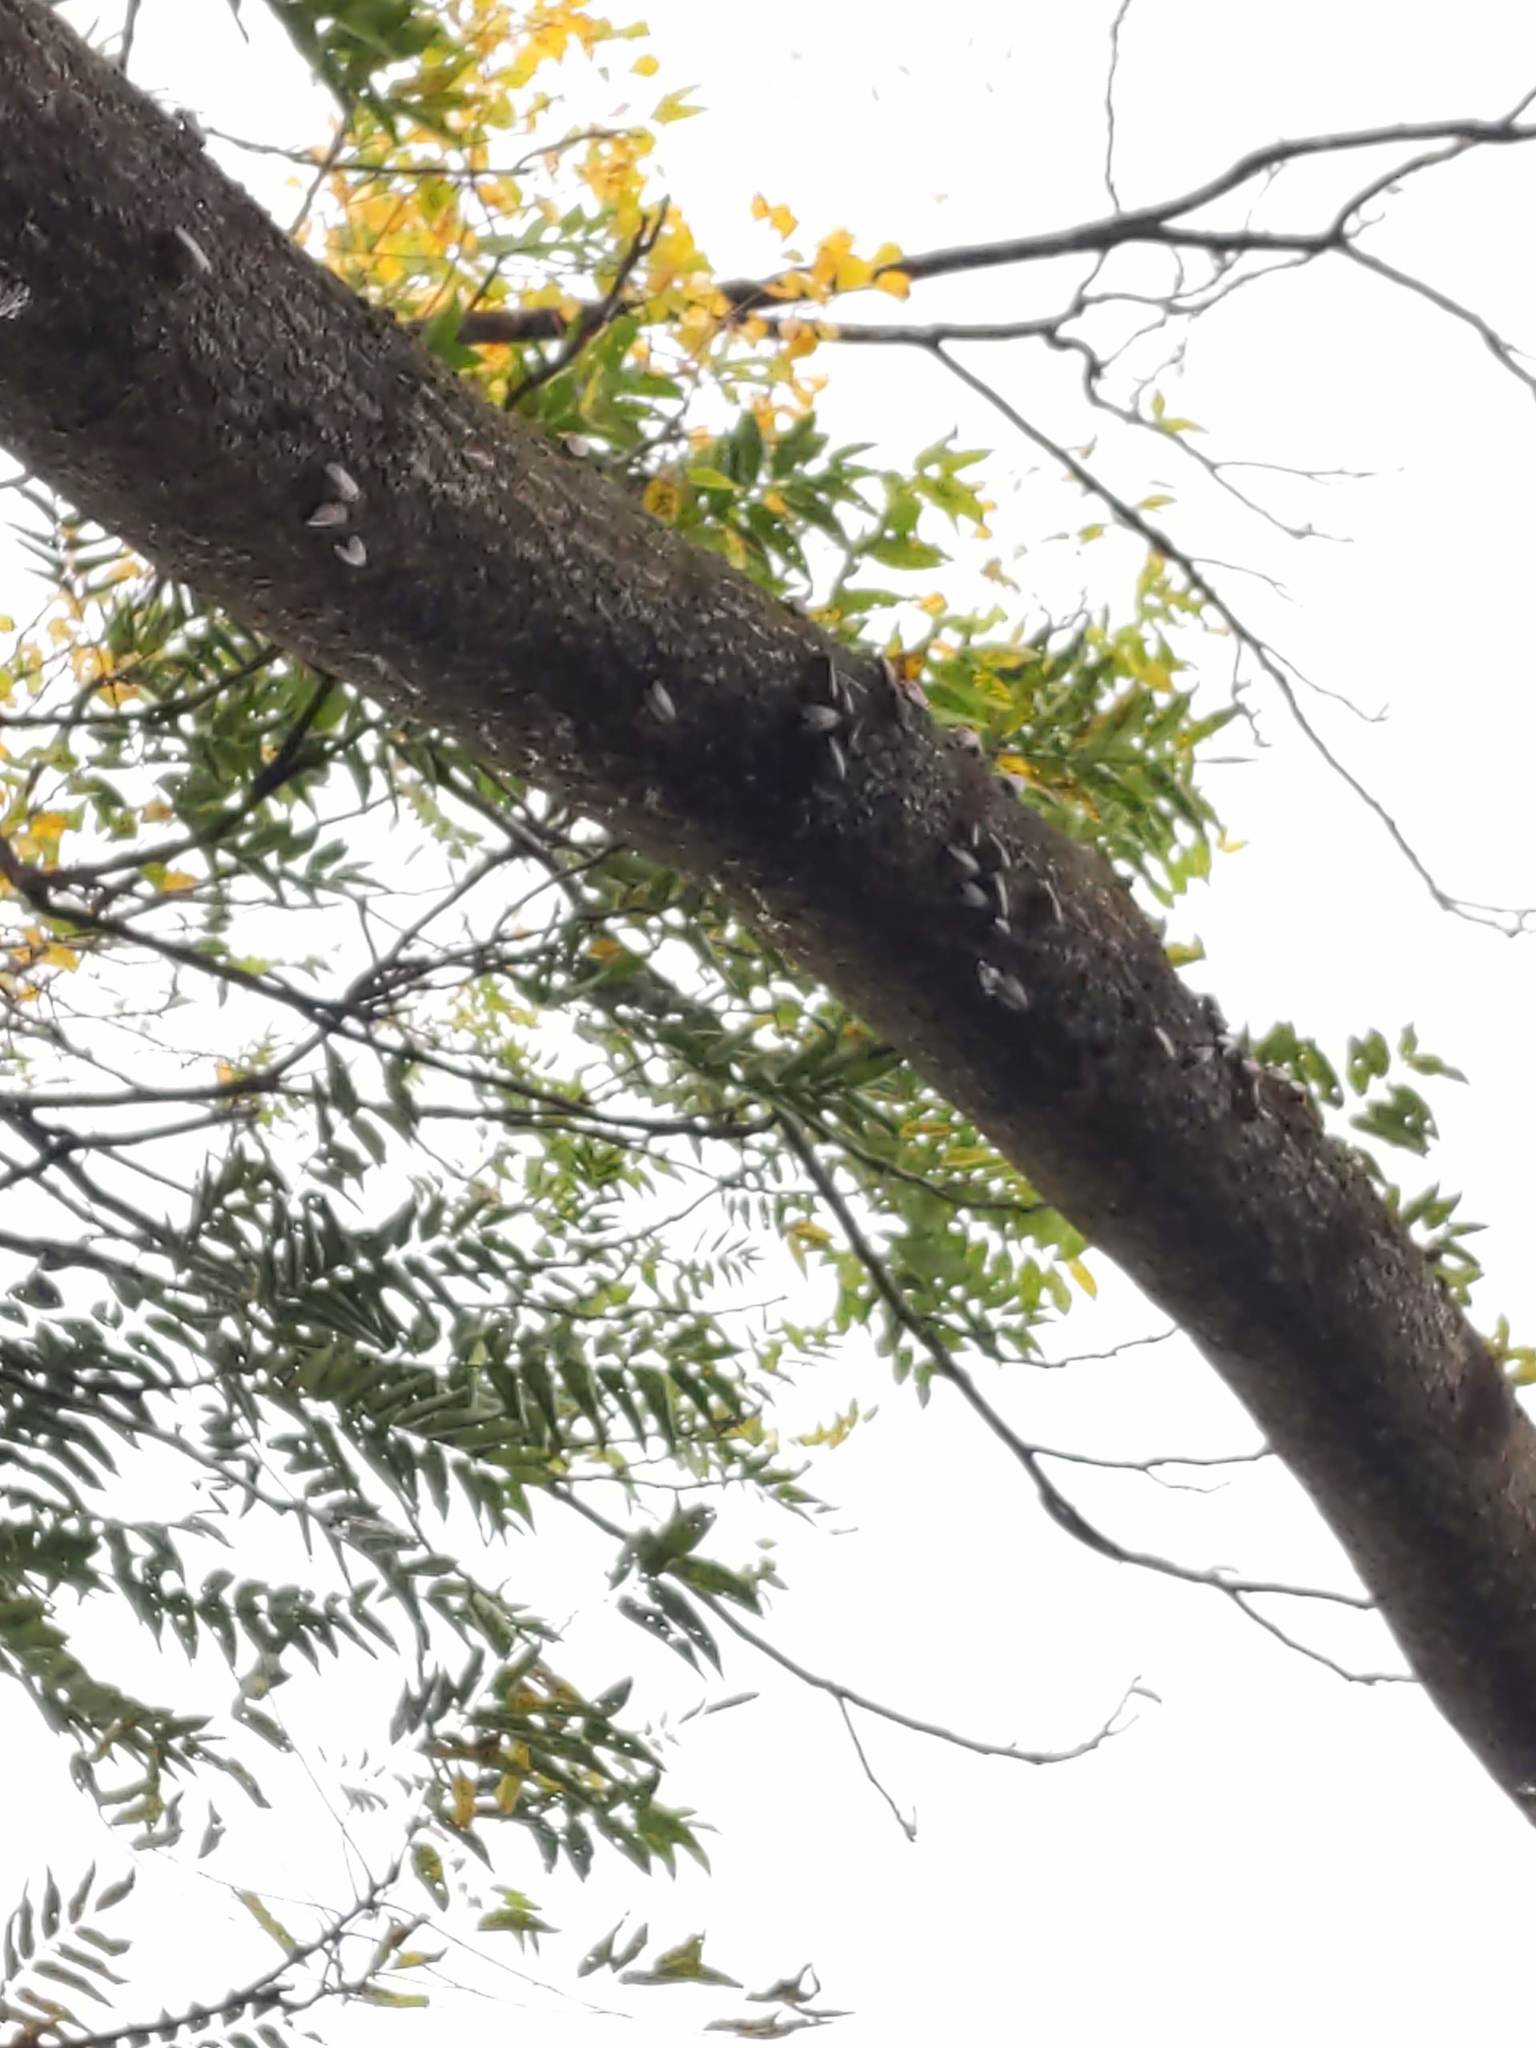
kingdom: Animalia
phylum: Arthropoda
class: Insecta
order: Hemiptera
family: Fulgoridae
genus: Lycorma
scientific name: Lycorma delicatula
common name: Spotted lanternfly
